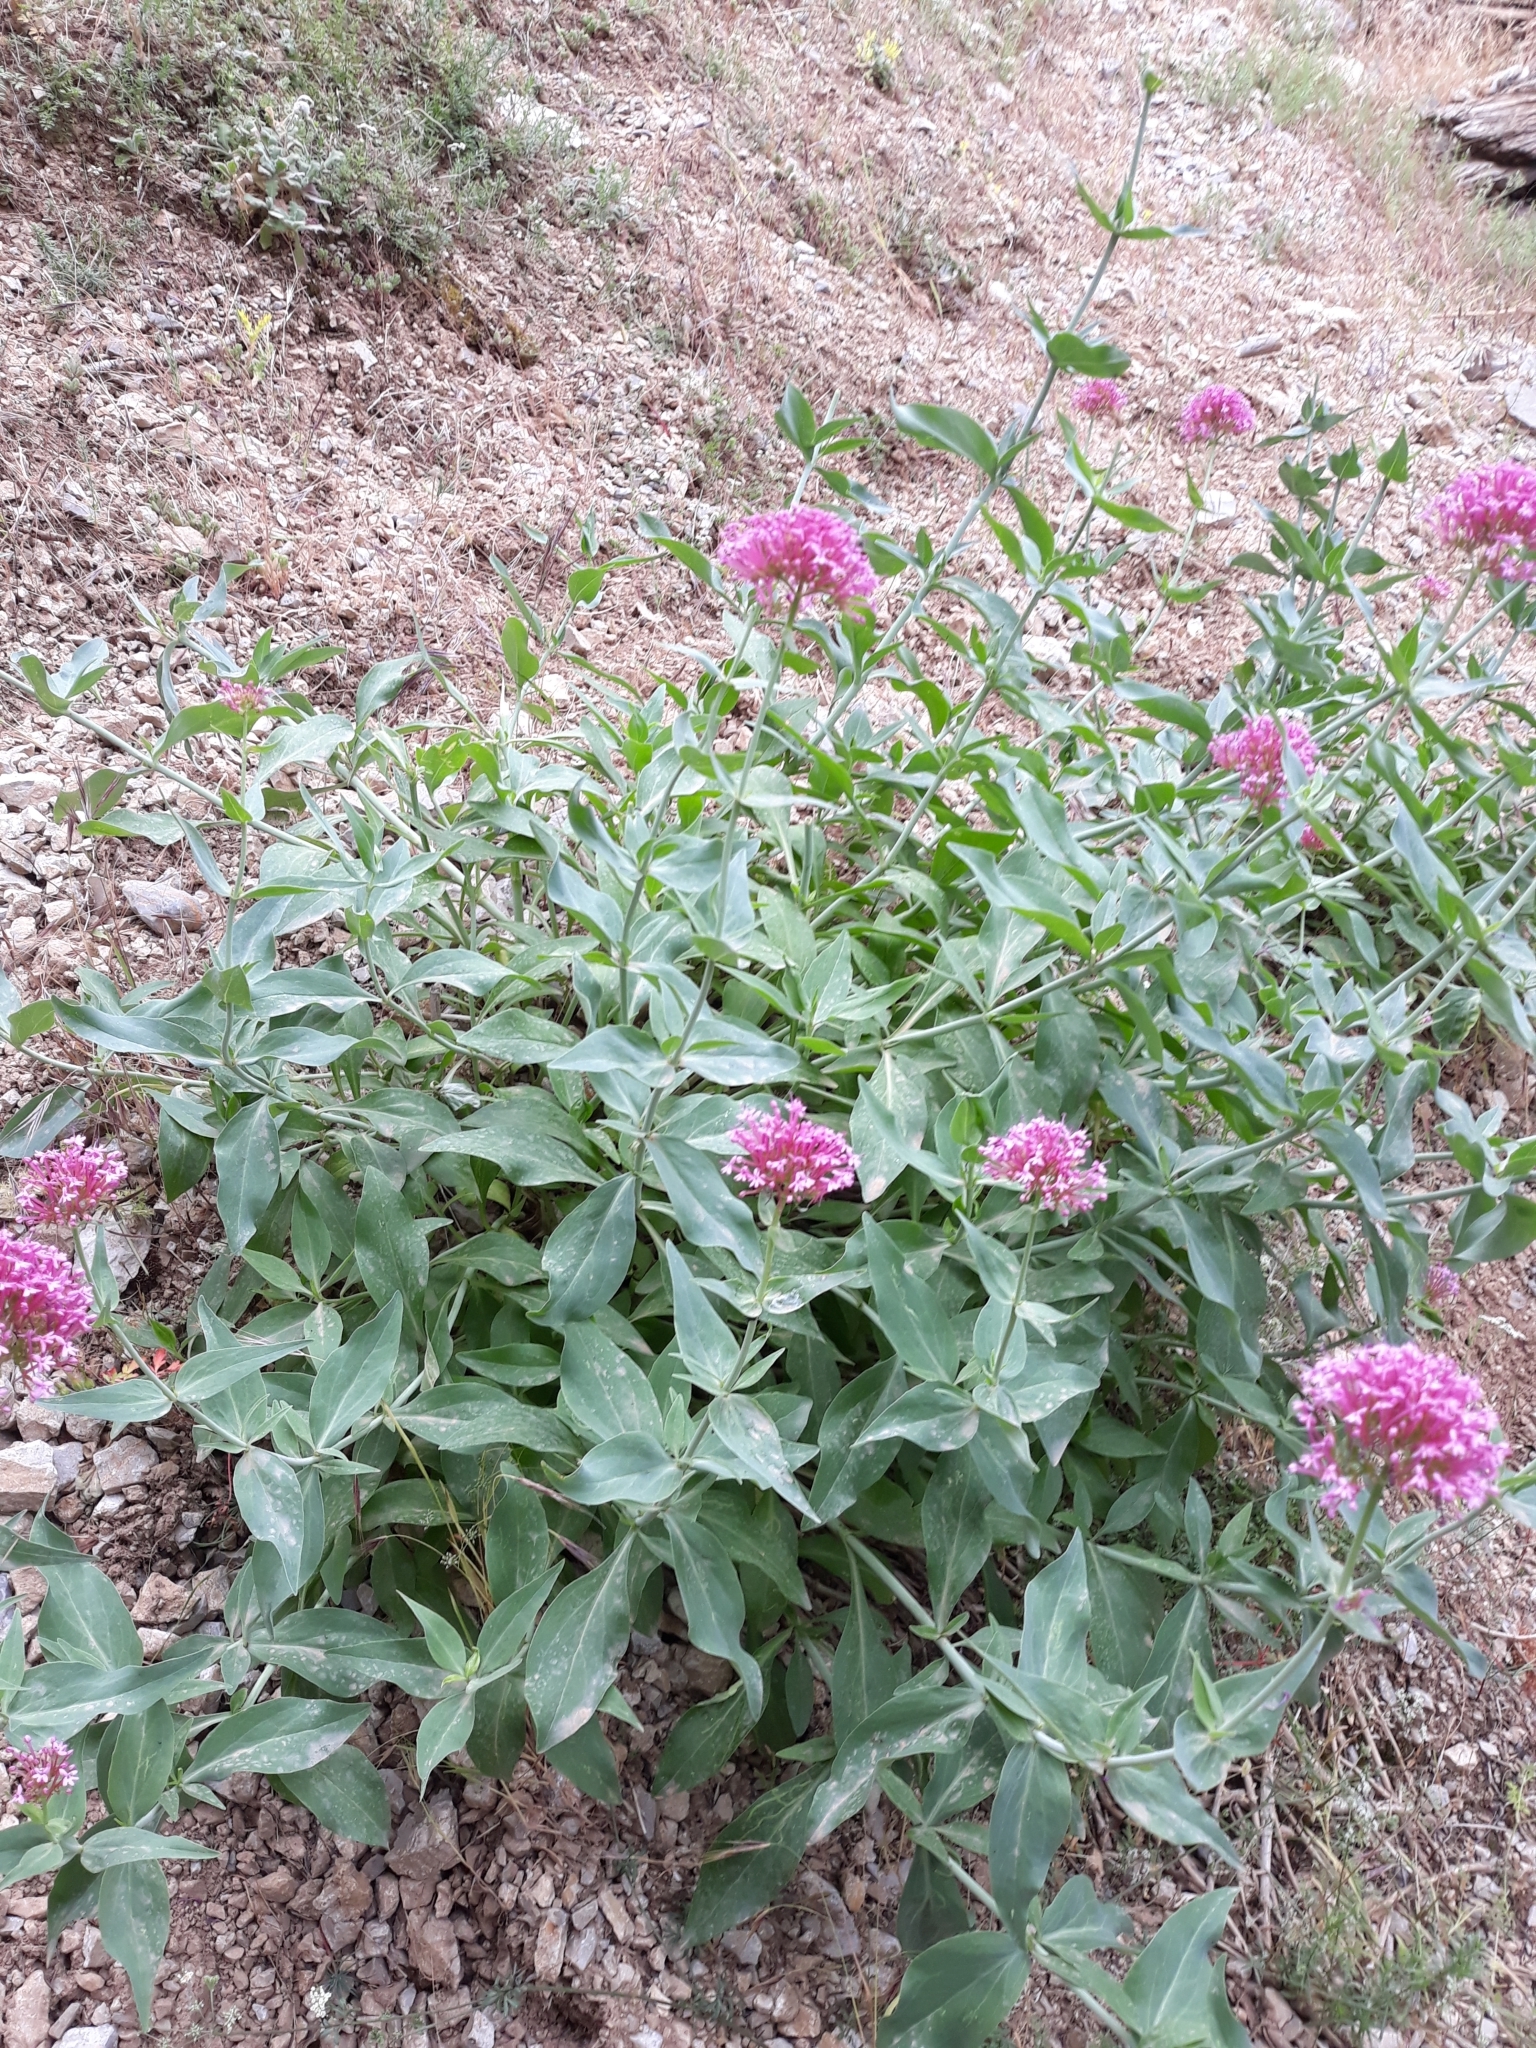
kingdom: Plantae
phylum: Tracheophyta
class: Magnoliopsida
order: Dipsacales
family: Caprifoliaceae
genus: Centranthus
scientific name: Centranthus ruber
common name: Red valerian
